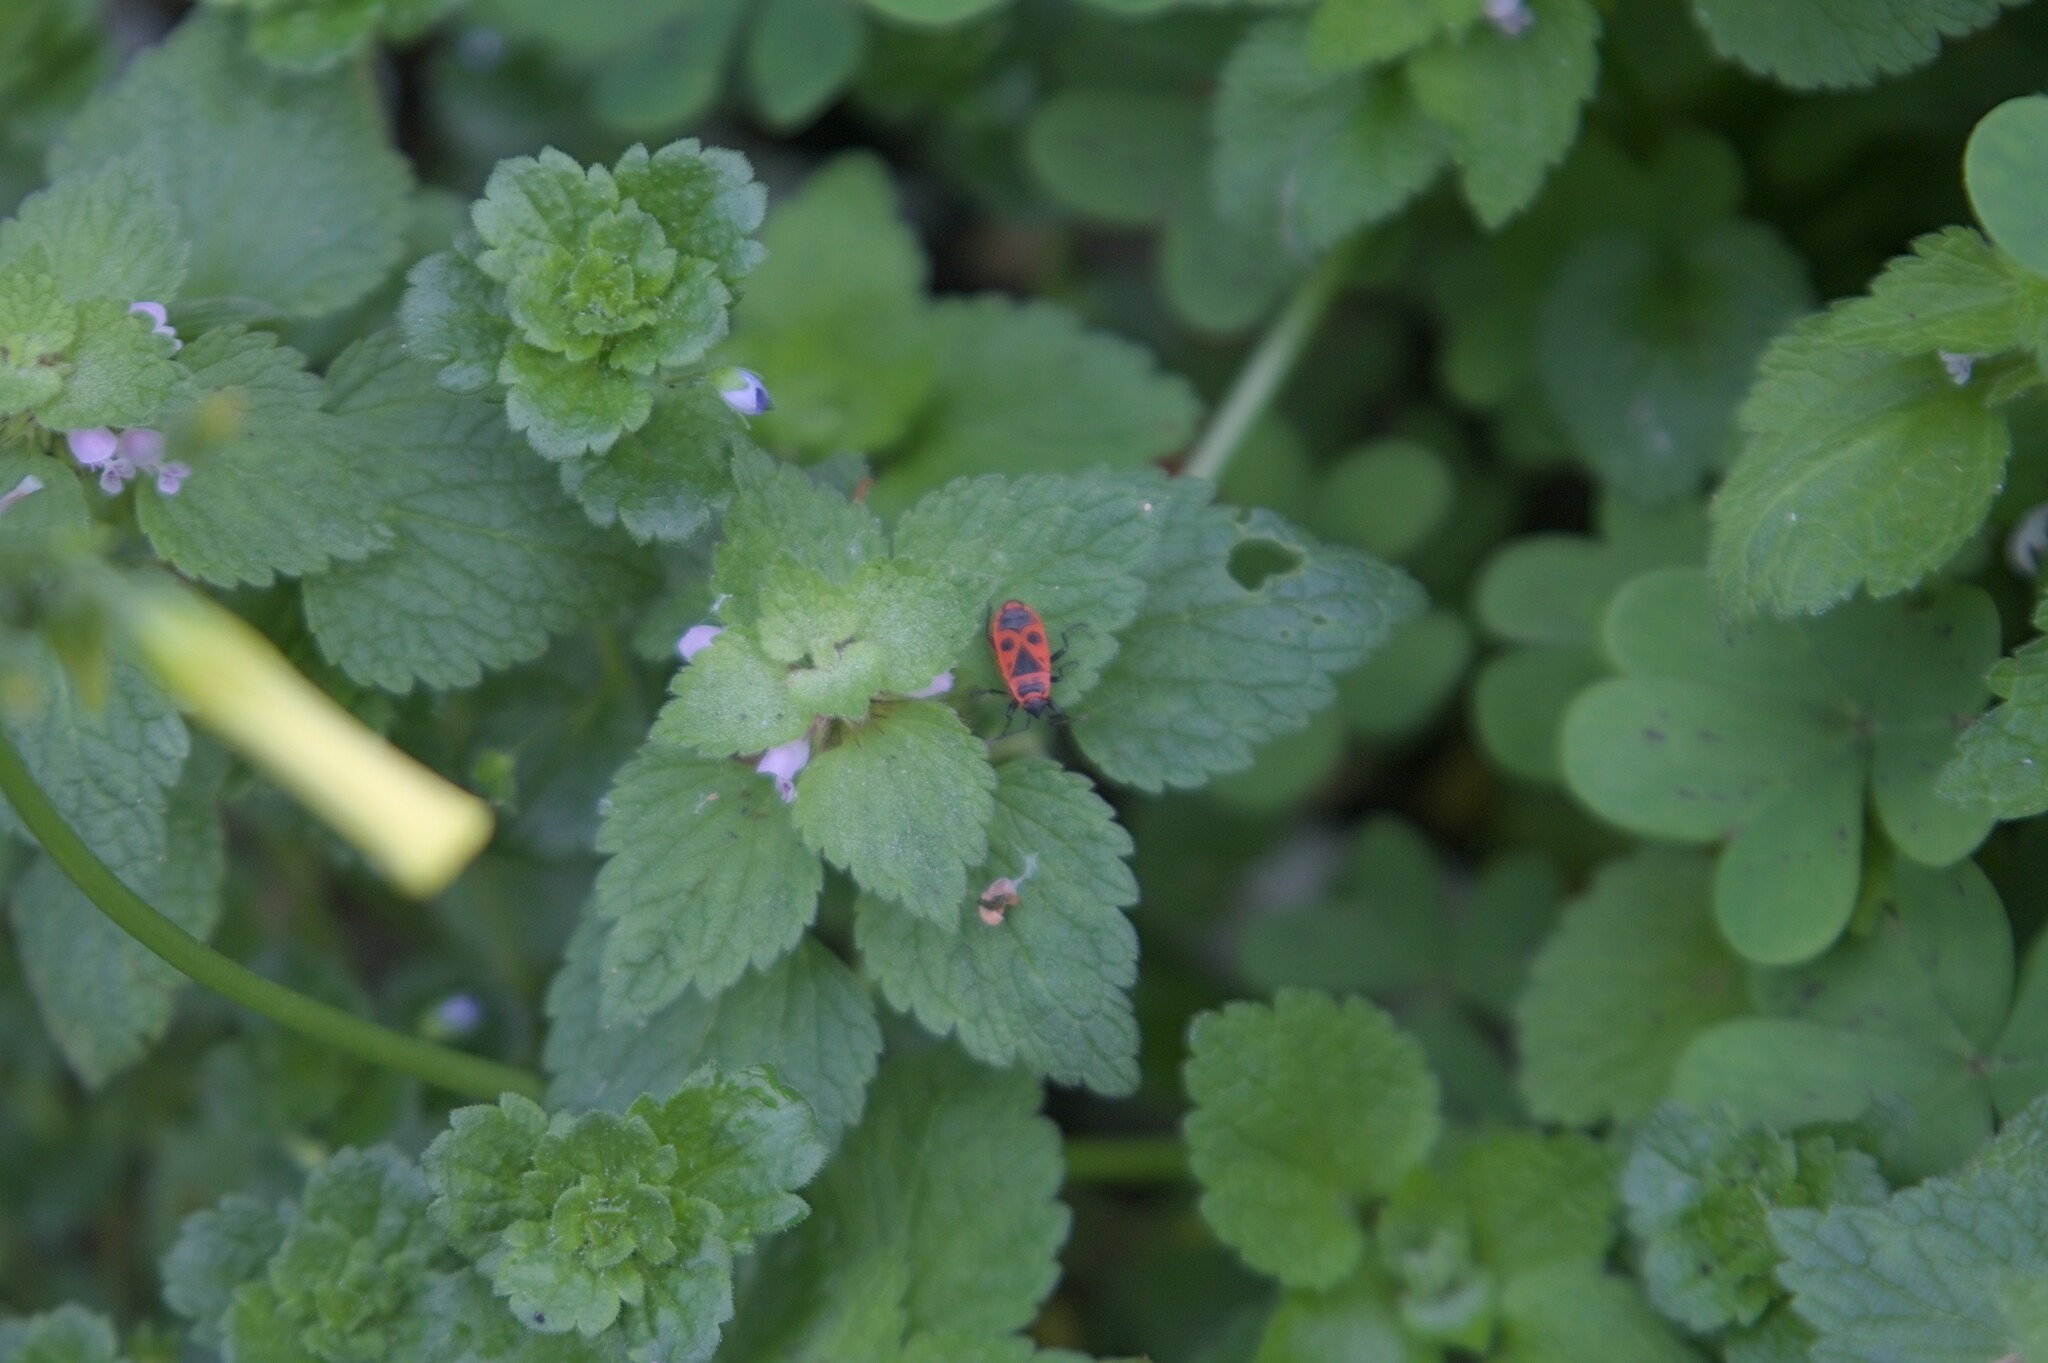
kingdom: Animalia
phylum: Arthropoda
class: Insecta
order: Hemiptera
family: Pyrrhocoridae
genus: Pyrrhocoris
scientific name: Pyrrhocoris apterus
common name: Firebug
